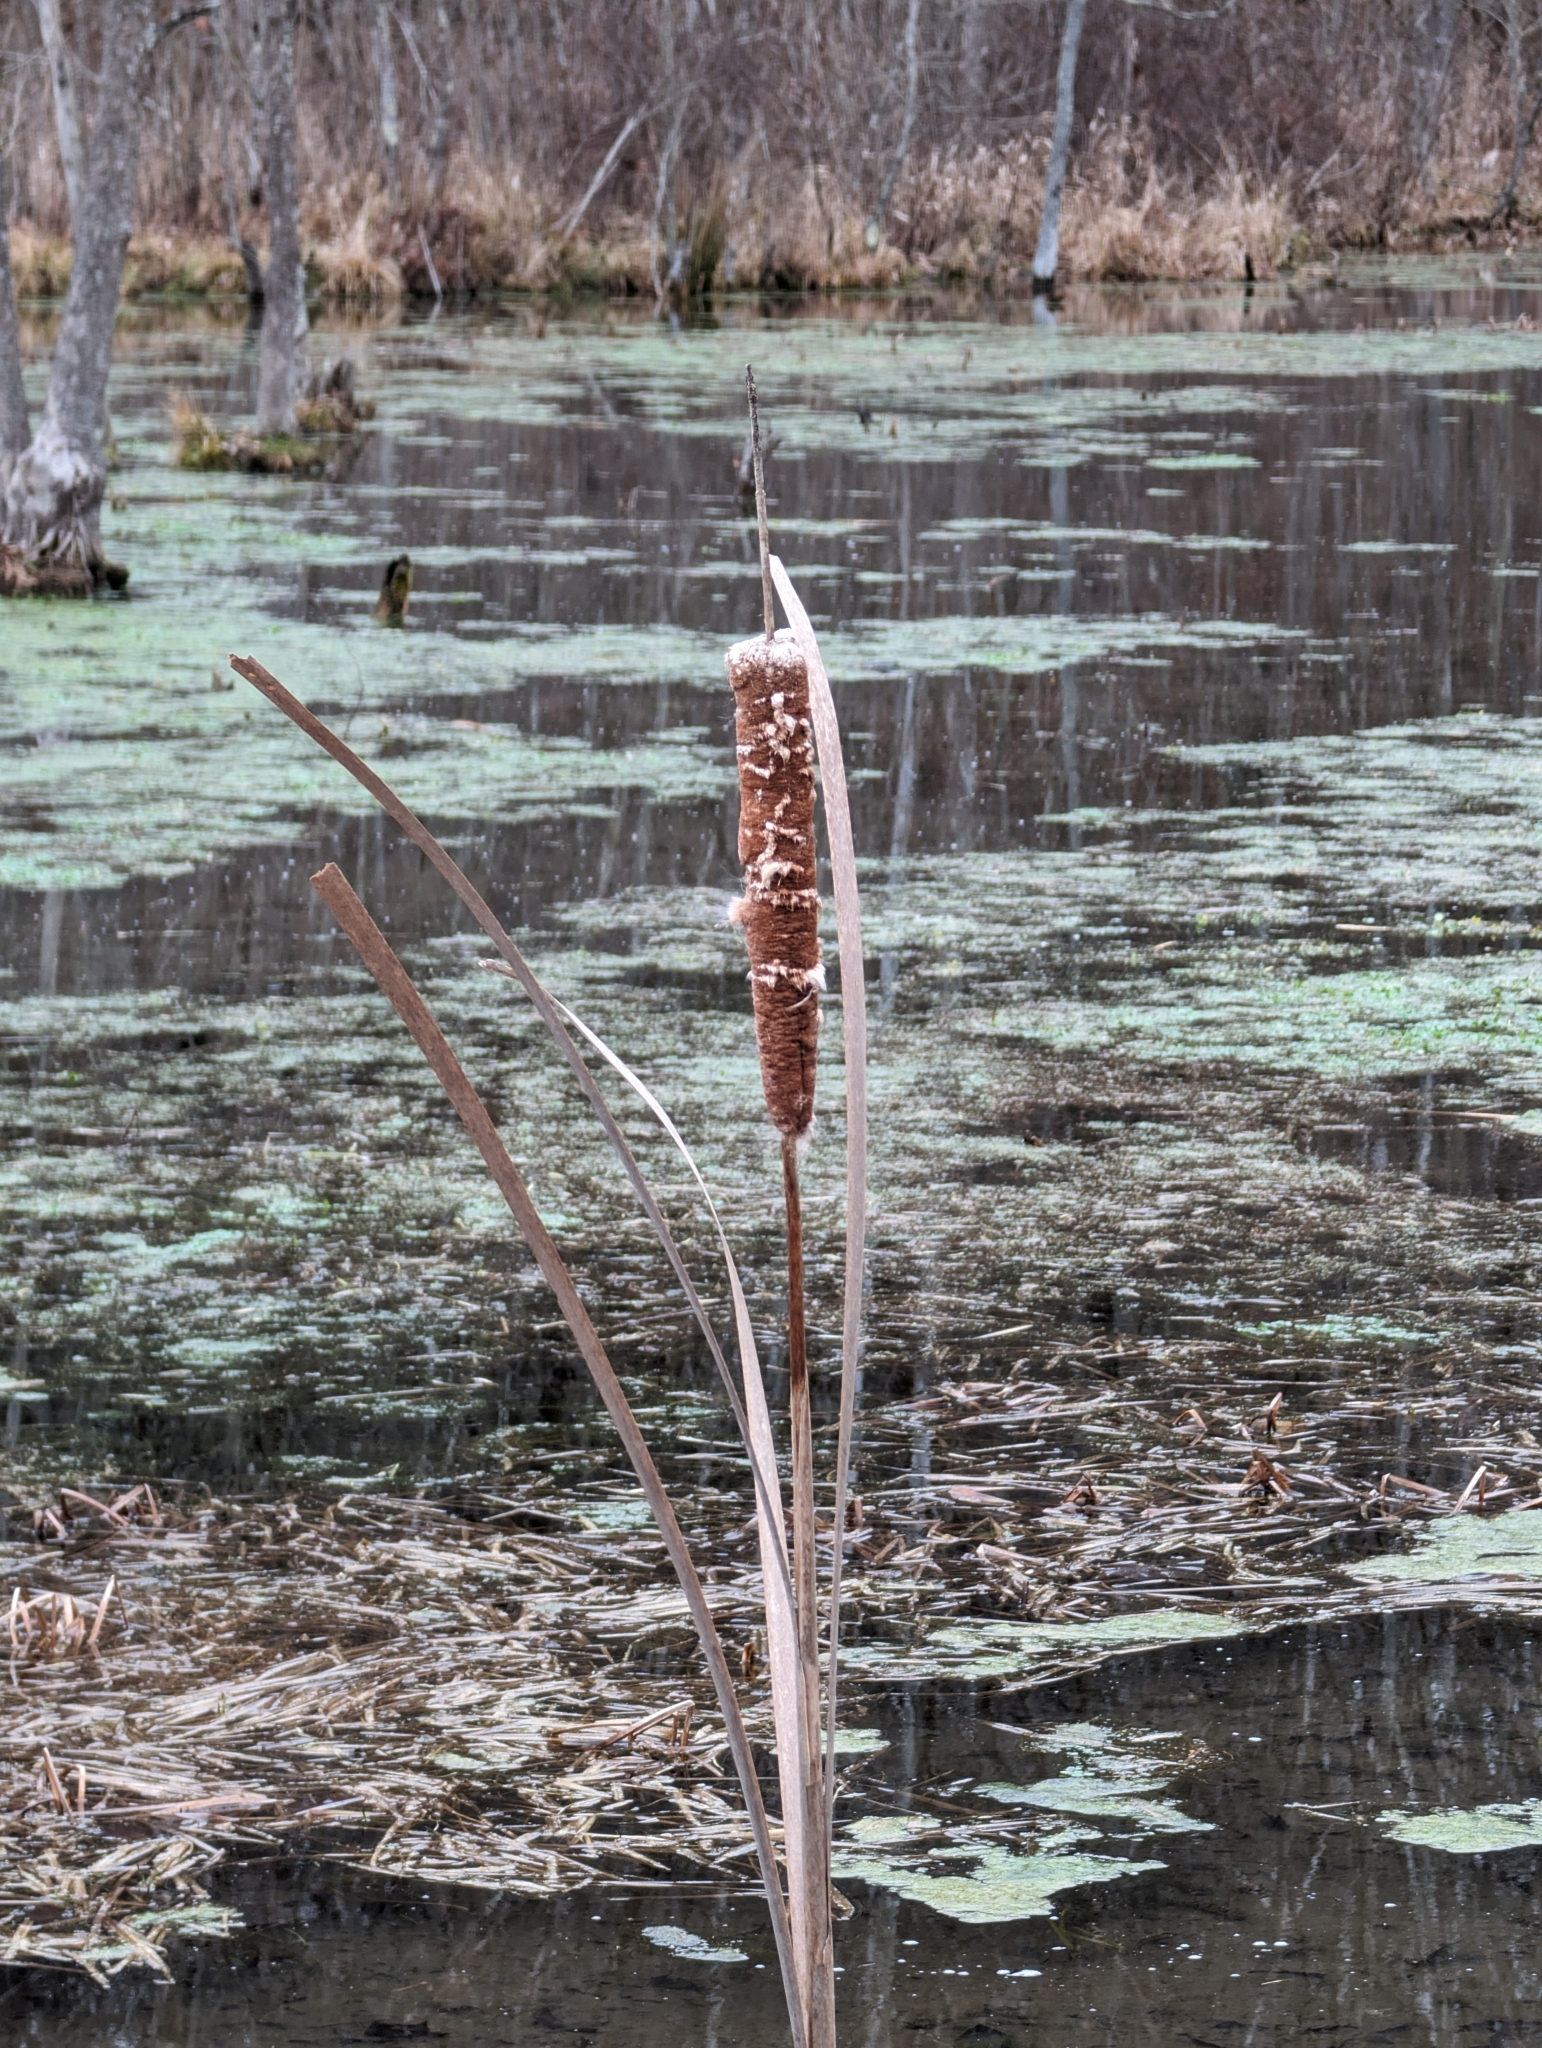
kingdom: Plantae
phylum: Tracheophyta
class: Liliopsida
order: Poales
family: Typhaceae
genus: Typha
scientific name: Typha latifolia
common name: Broadleaf cattail
